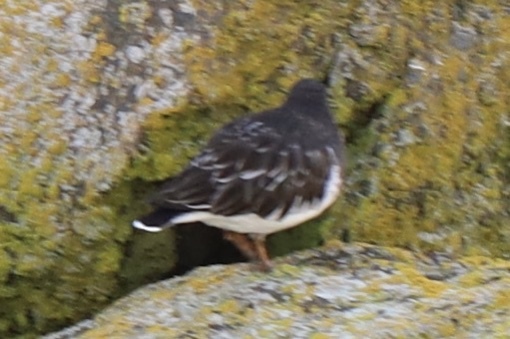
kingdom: Animalia
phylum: Chordata
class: Aves
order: Charadriiformes
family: Scolopacidae
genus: Arenaria
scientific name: Arenaria melanocephala
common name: Black turnstone
